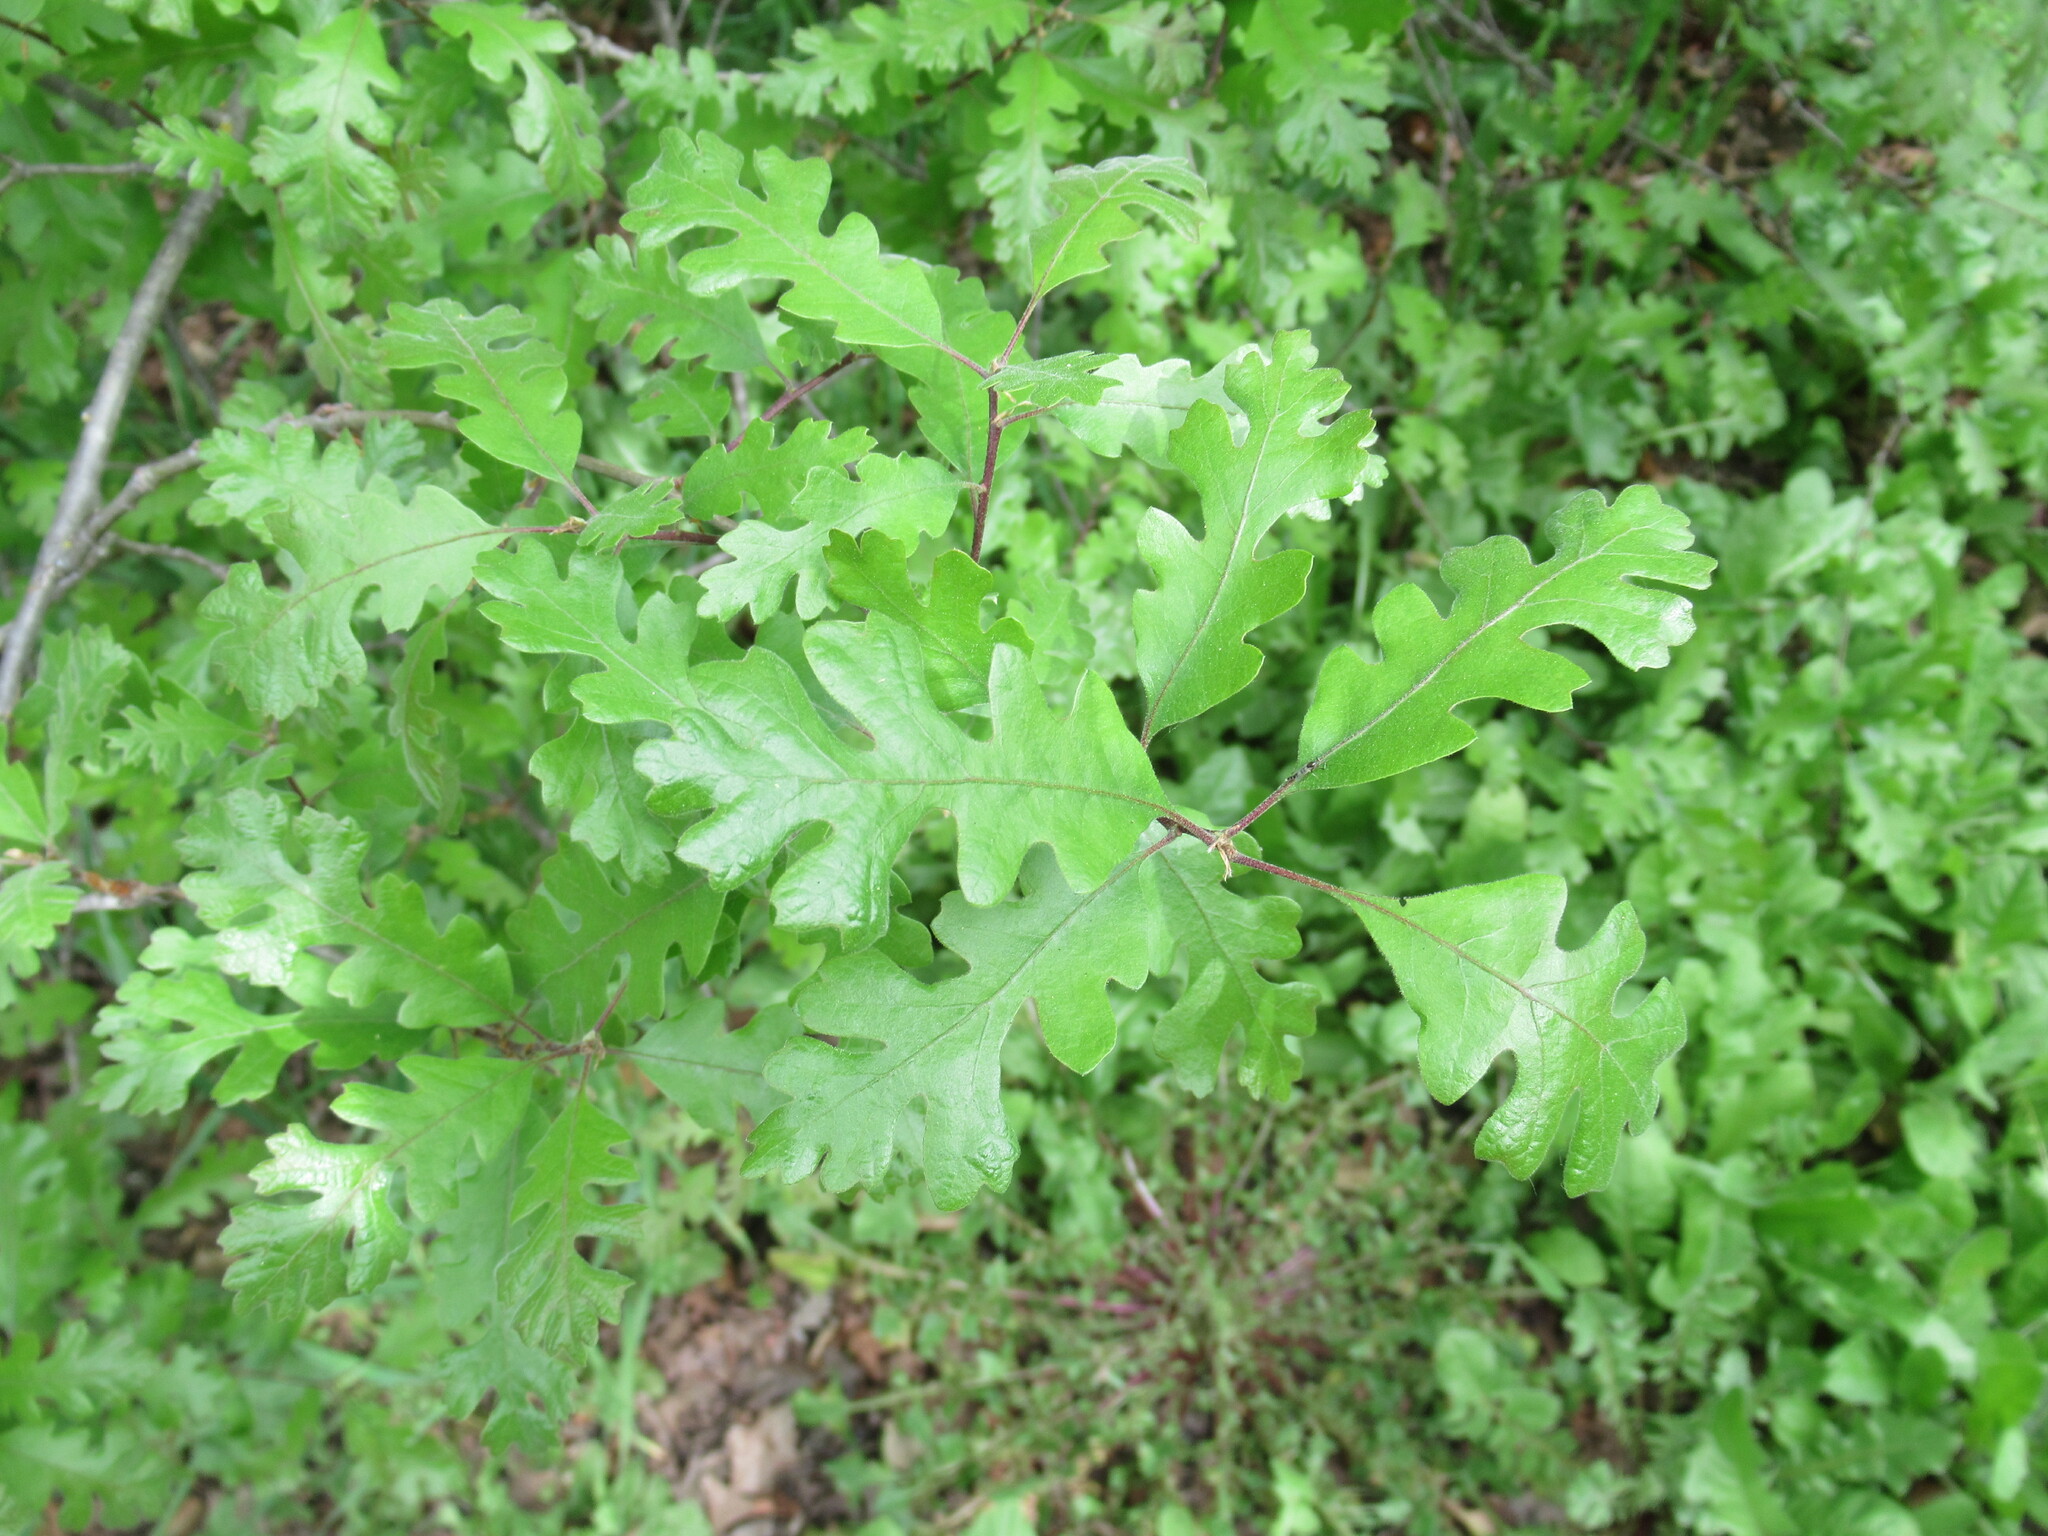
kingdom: Plantae
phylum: Tracheophyta
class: Magnoliopsida
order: Fagales
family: Fagaceae
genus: Quercus
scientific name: Quercus lobata
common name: Valley oak
